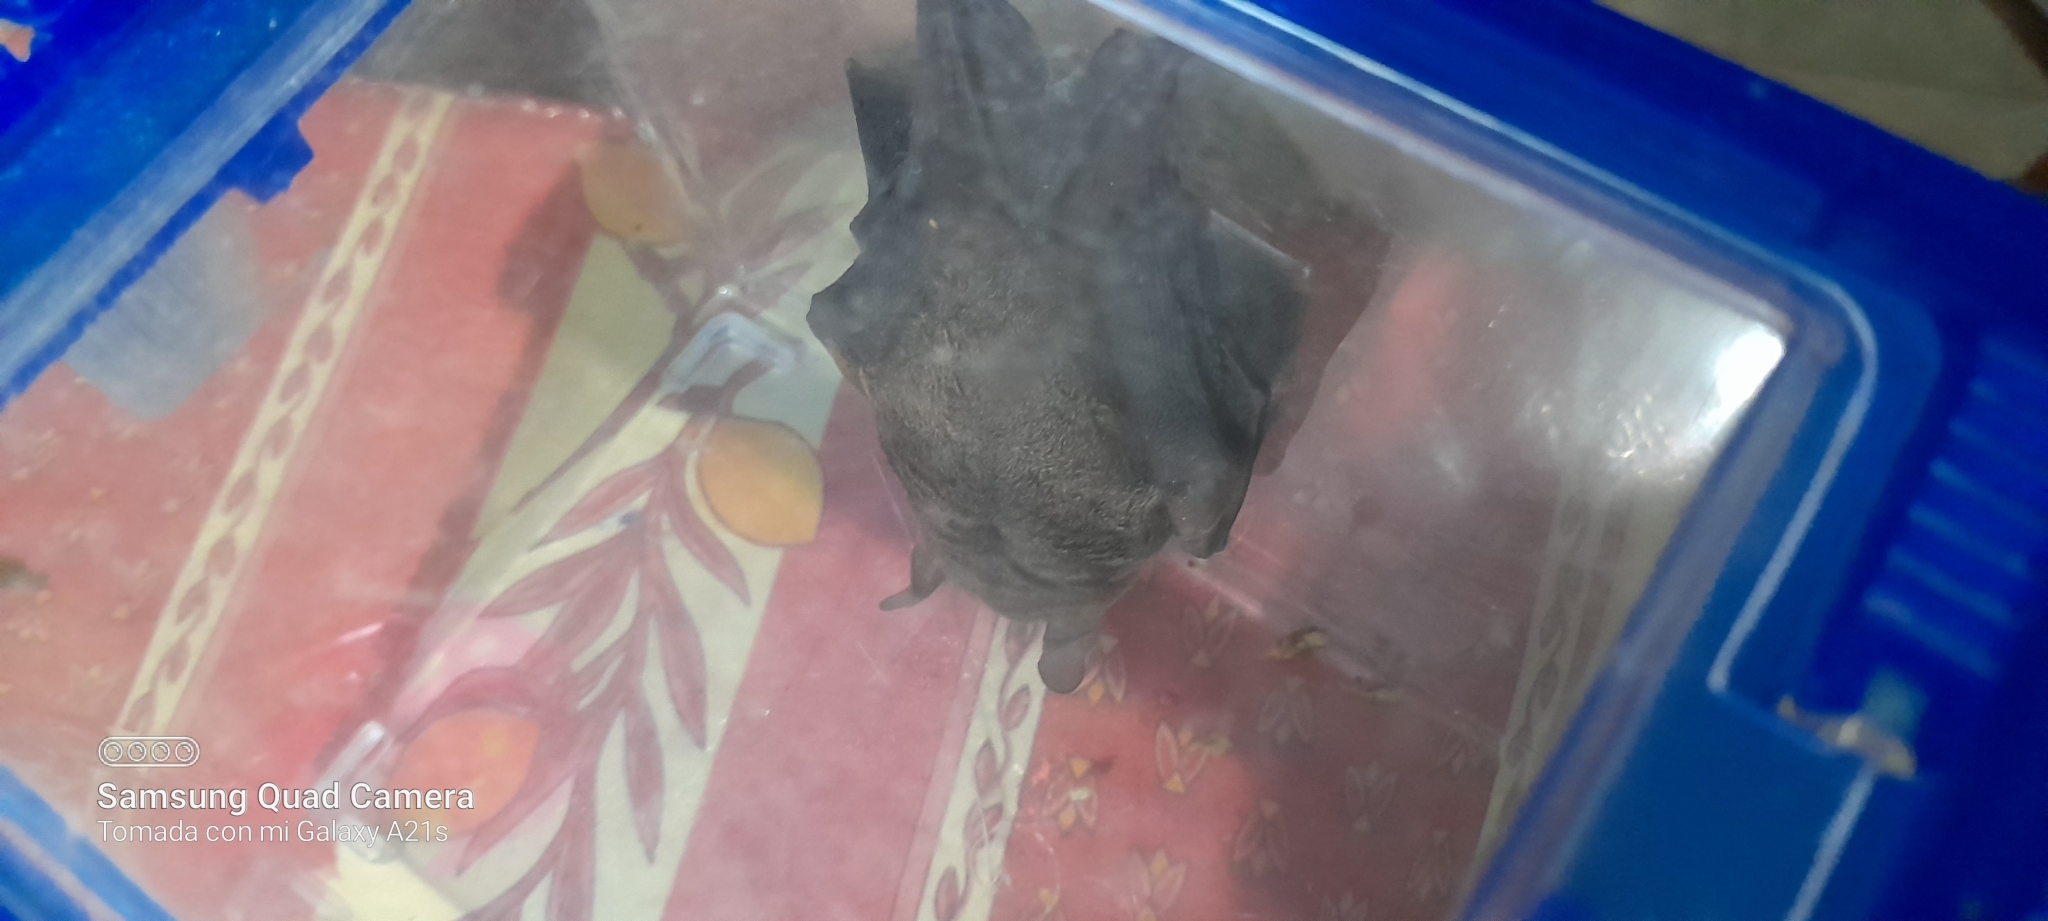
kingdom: Animalia
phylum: Chordata
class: Mammalia
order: Chiroptera
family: Phyllostomidae
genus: Carollia
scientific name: Carollia perspicillata
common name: Seba's short-tailed bat
